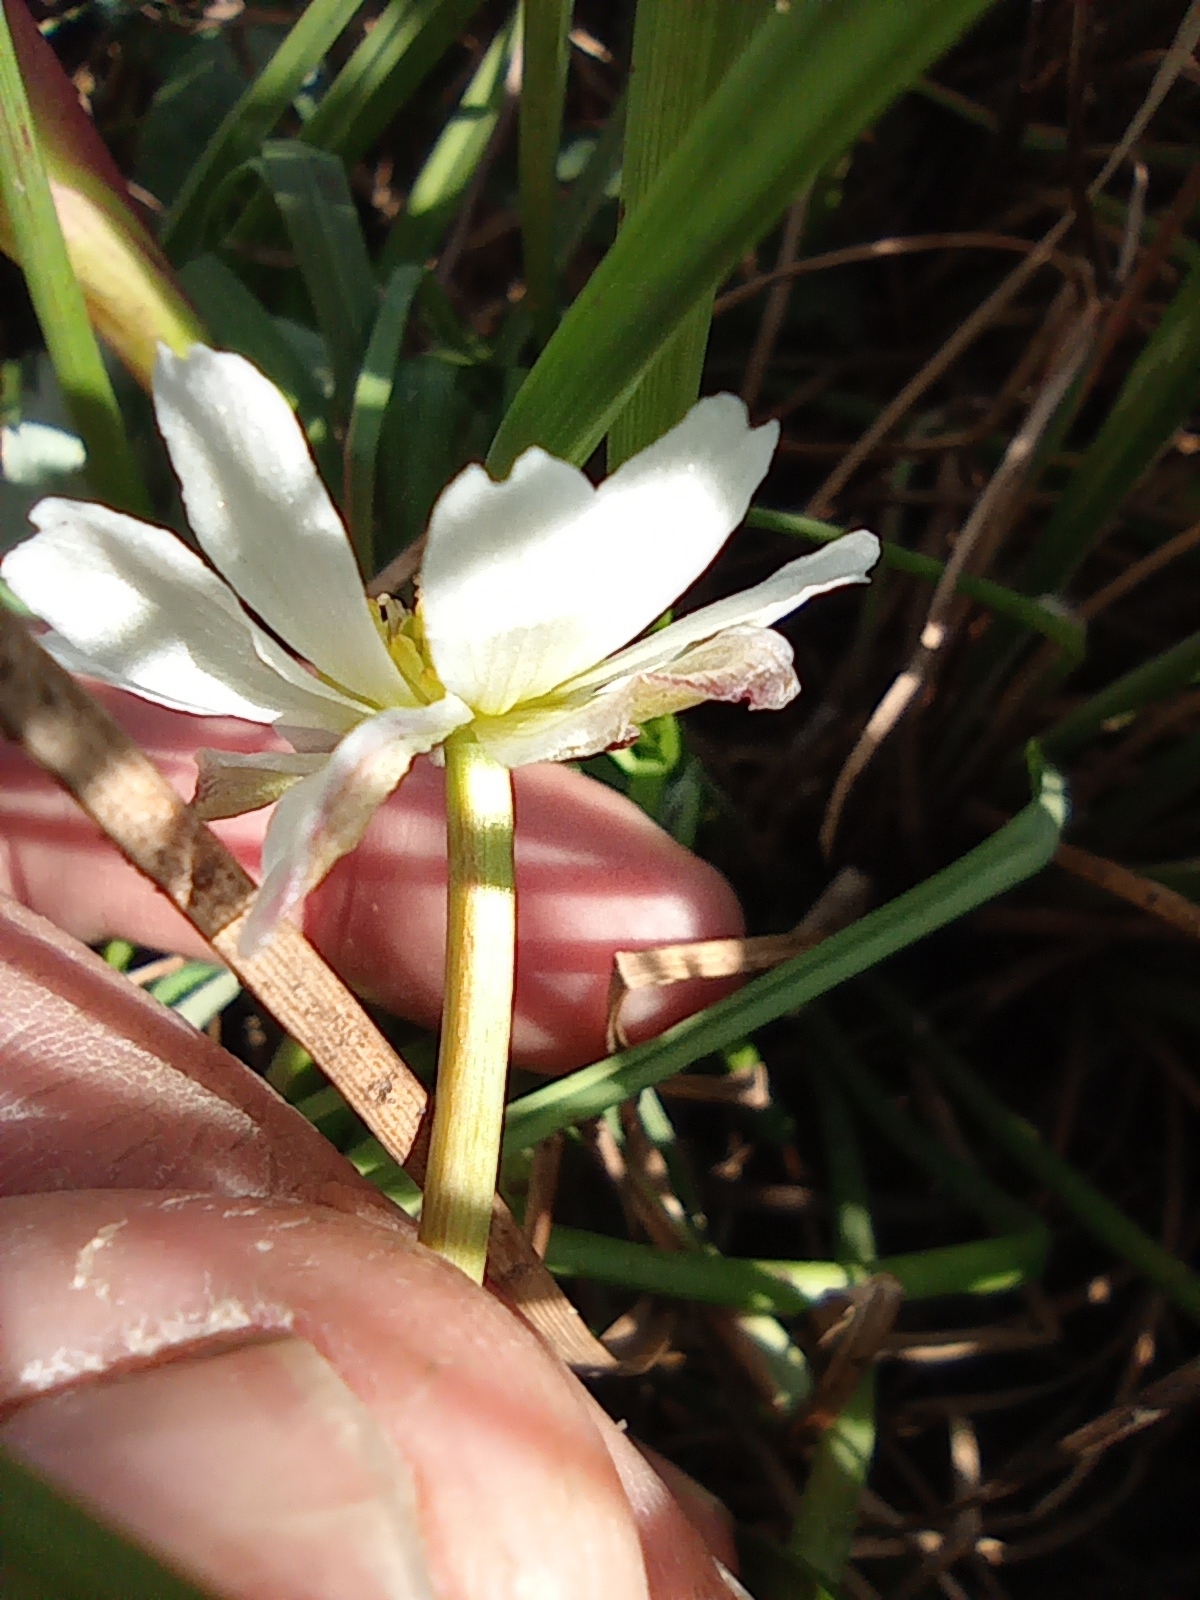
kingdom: Plantae
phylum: Tracheophyta
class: Magnoliopsida
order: Ranunculales
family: Ranunculaceae
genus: Coptidium
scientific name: Coptidium pallasii
